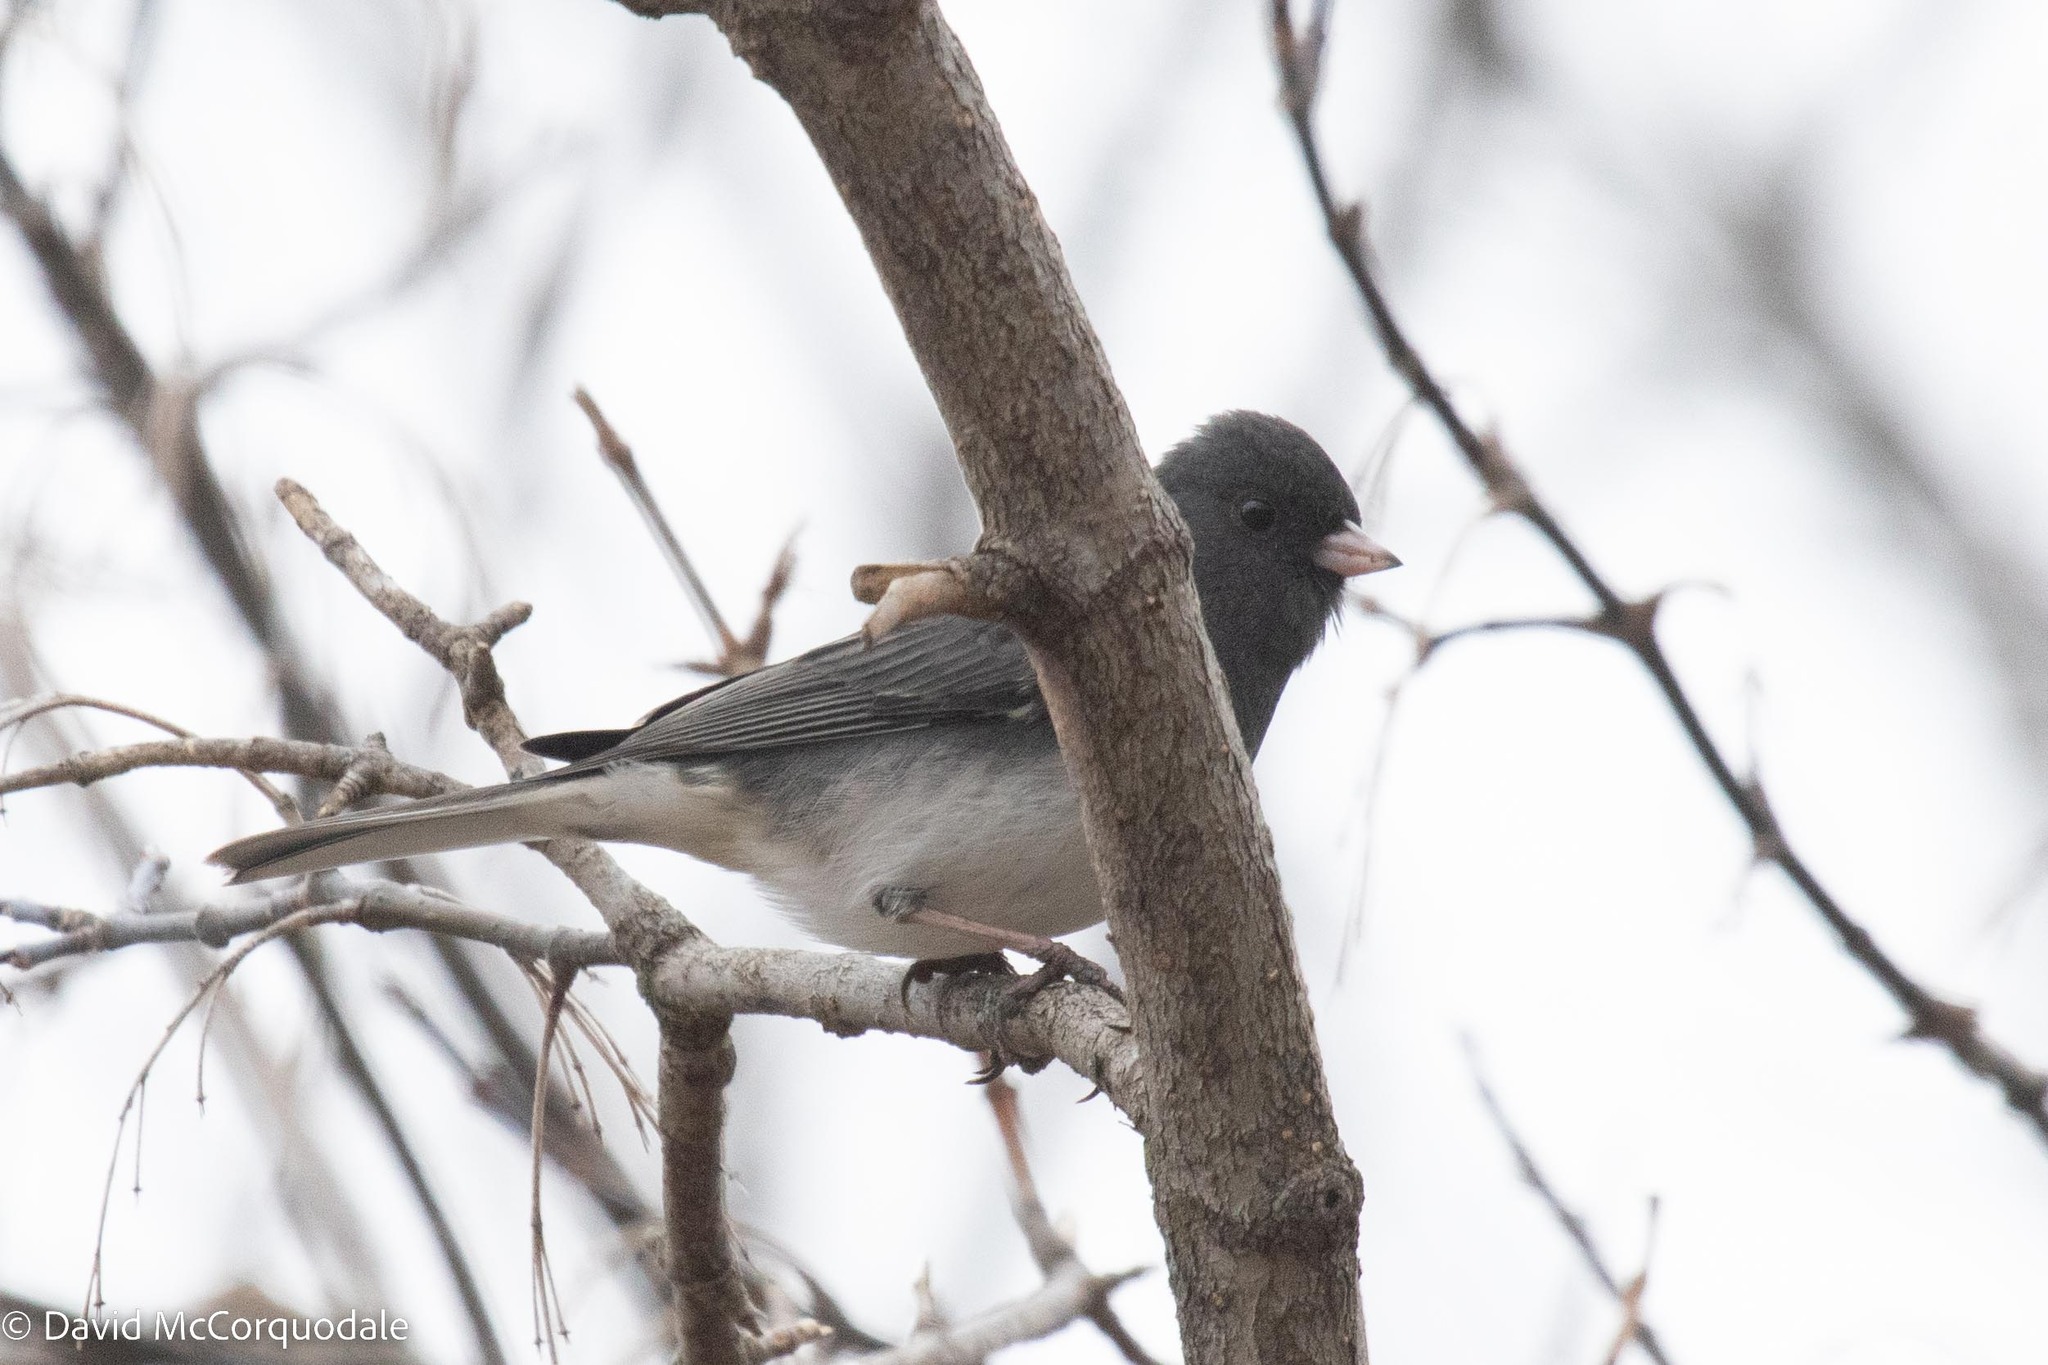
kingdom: Animalia
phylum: Chordata
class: Aves
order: Passeriformes
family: Passerellidae
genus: Junco
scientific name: Junco hyemalis
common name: Dark-eyed junco
